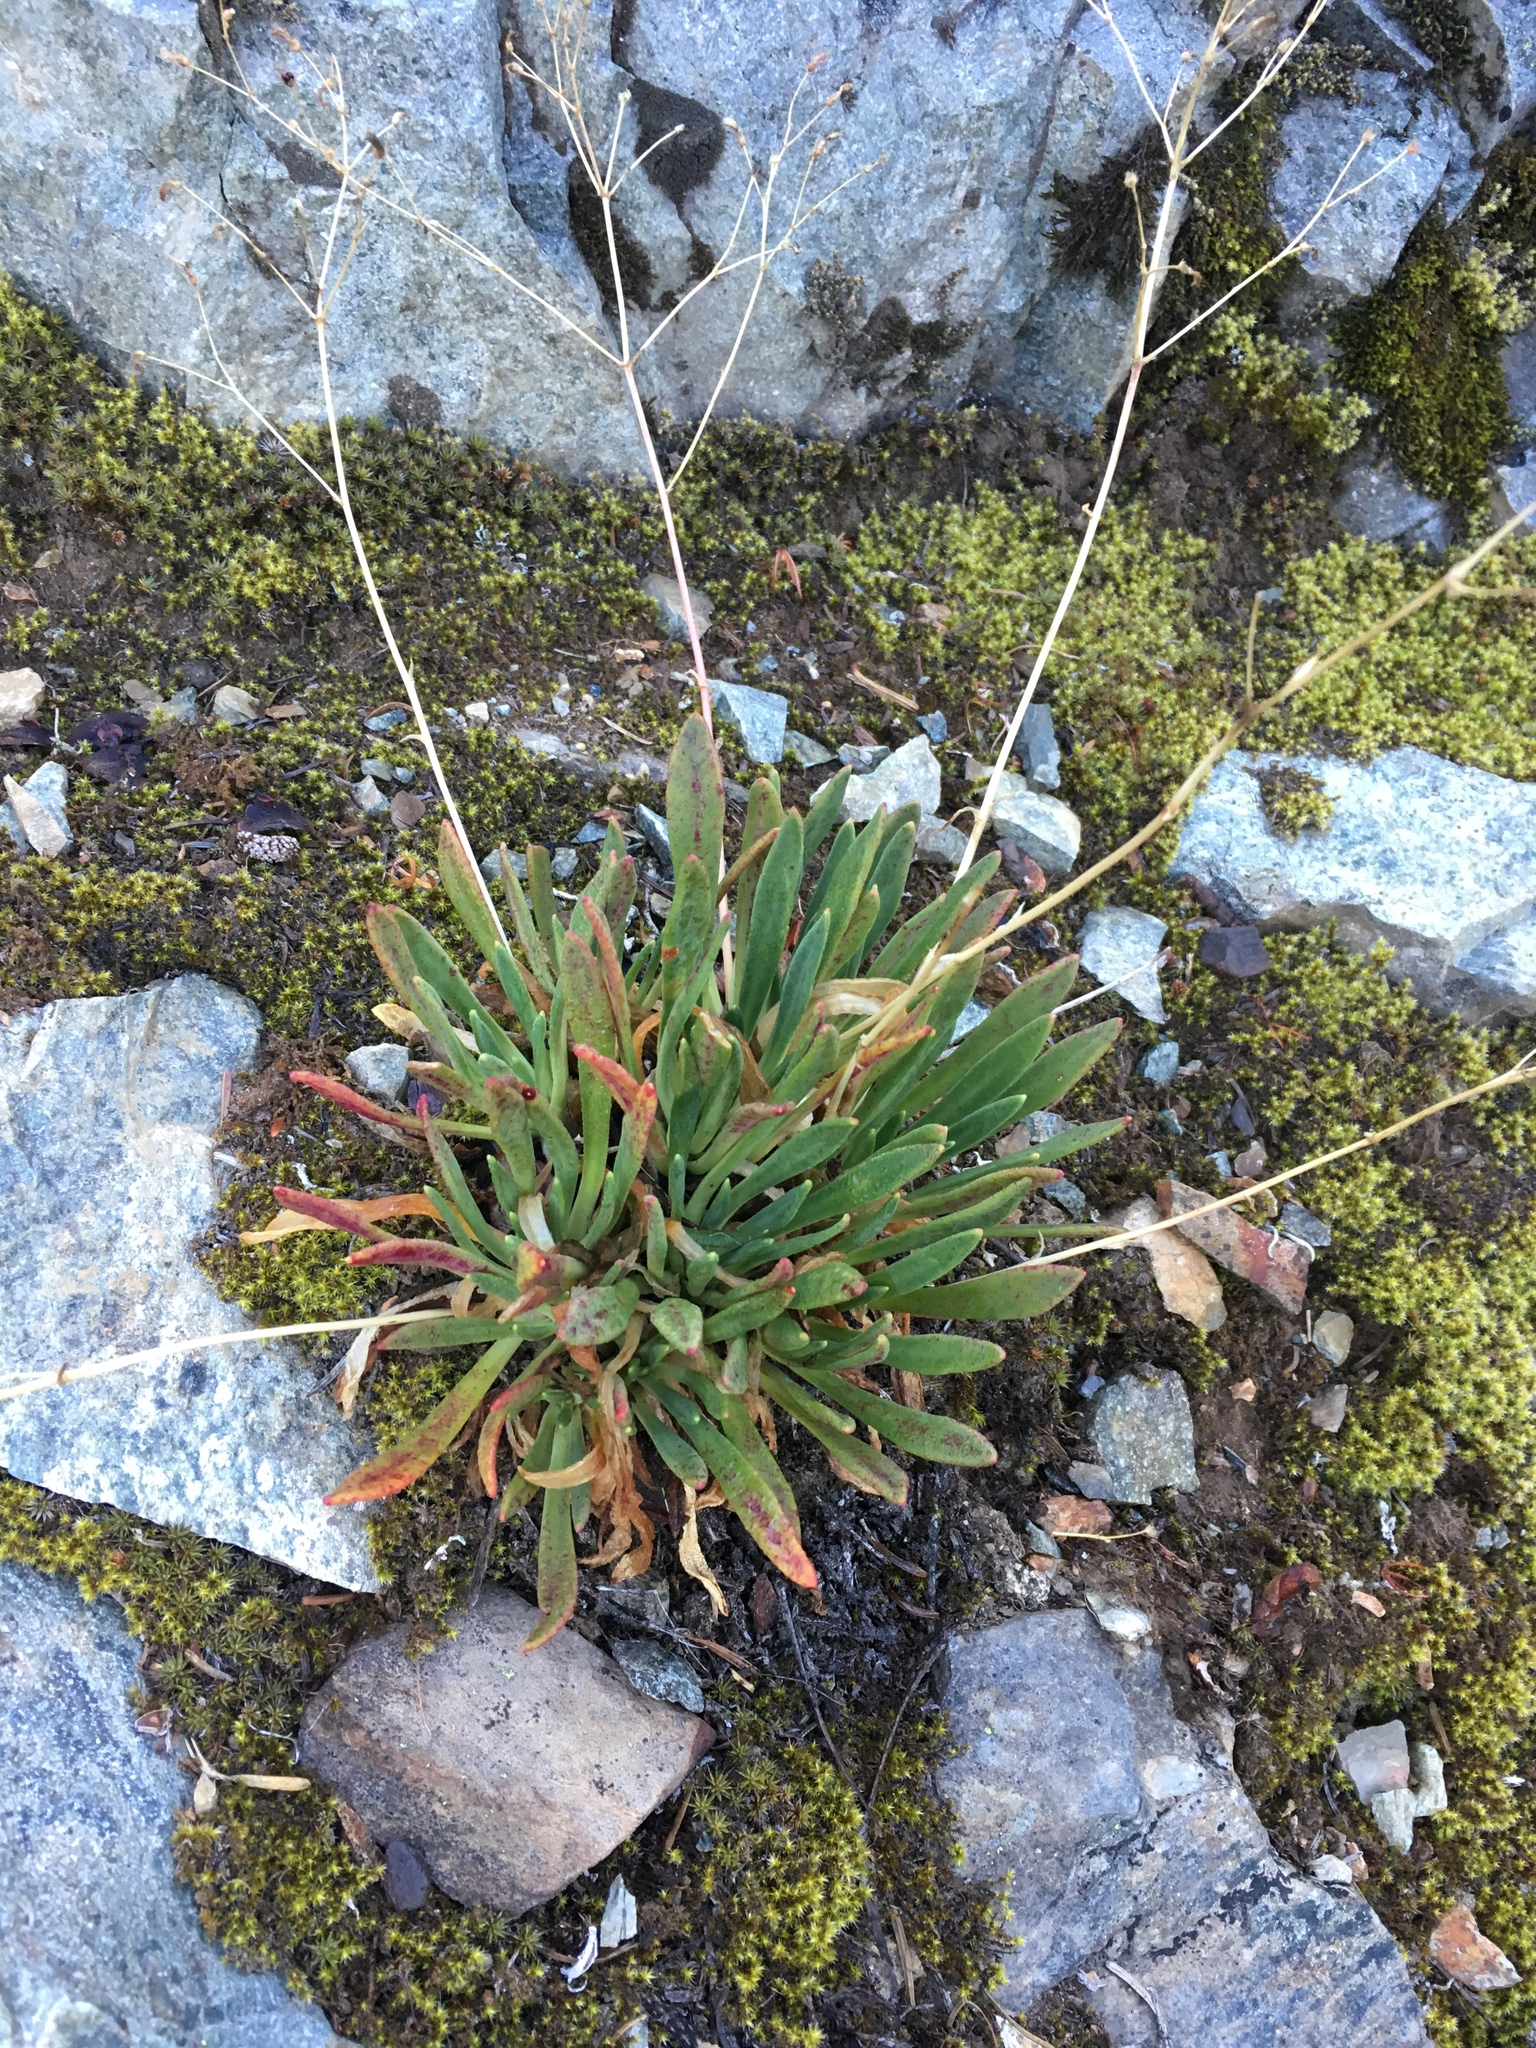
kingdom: Plantae
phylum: Tracheophyta
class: Magnoliopsida
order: Caryophyllales
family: Montiaceae
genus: Lewisia
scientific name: Lewisia columbiana
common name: Columbia lewisia
